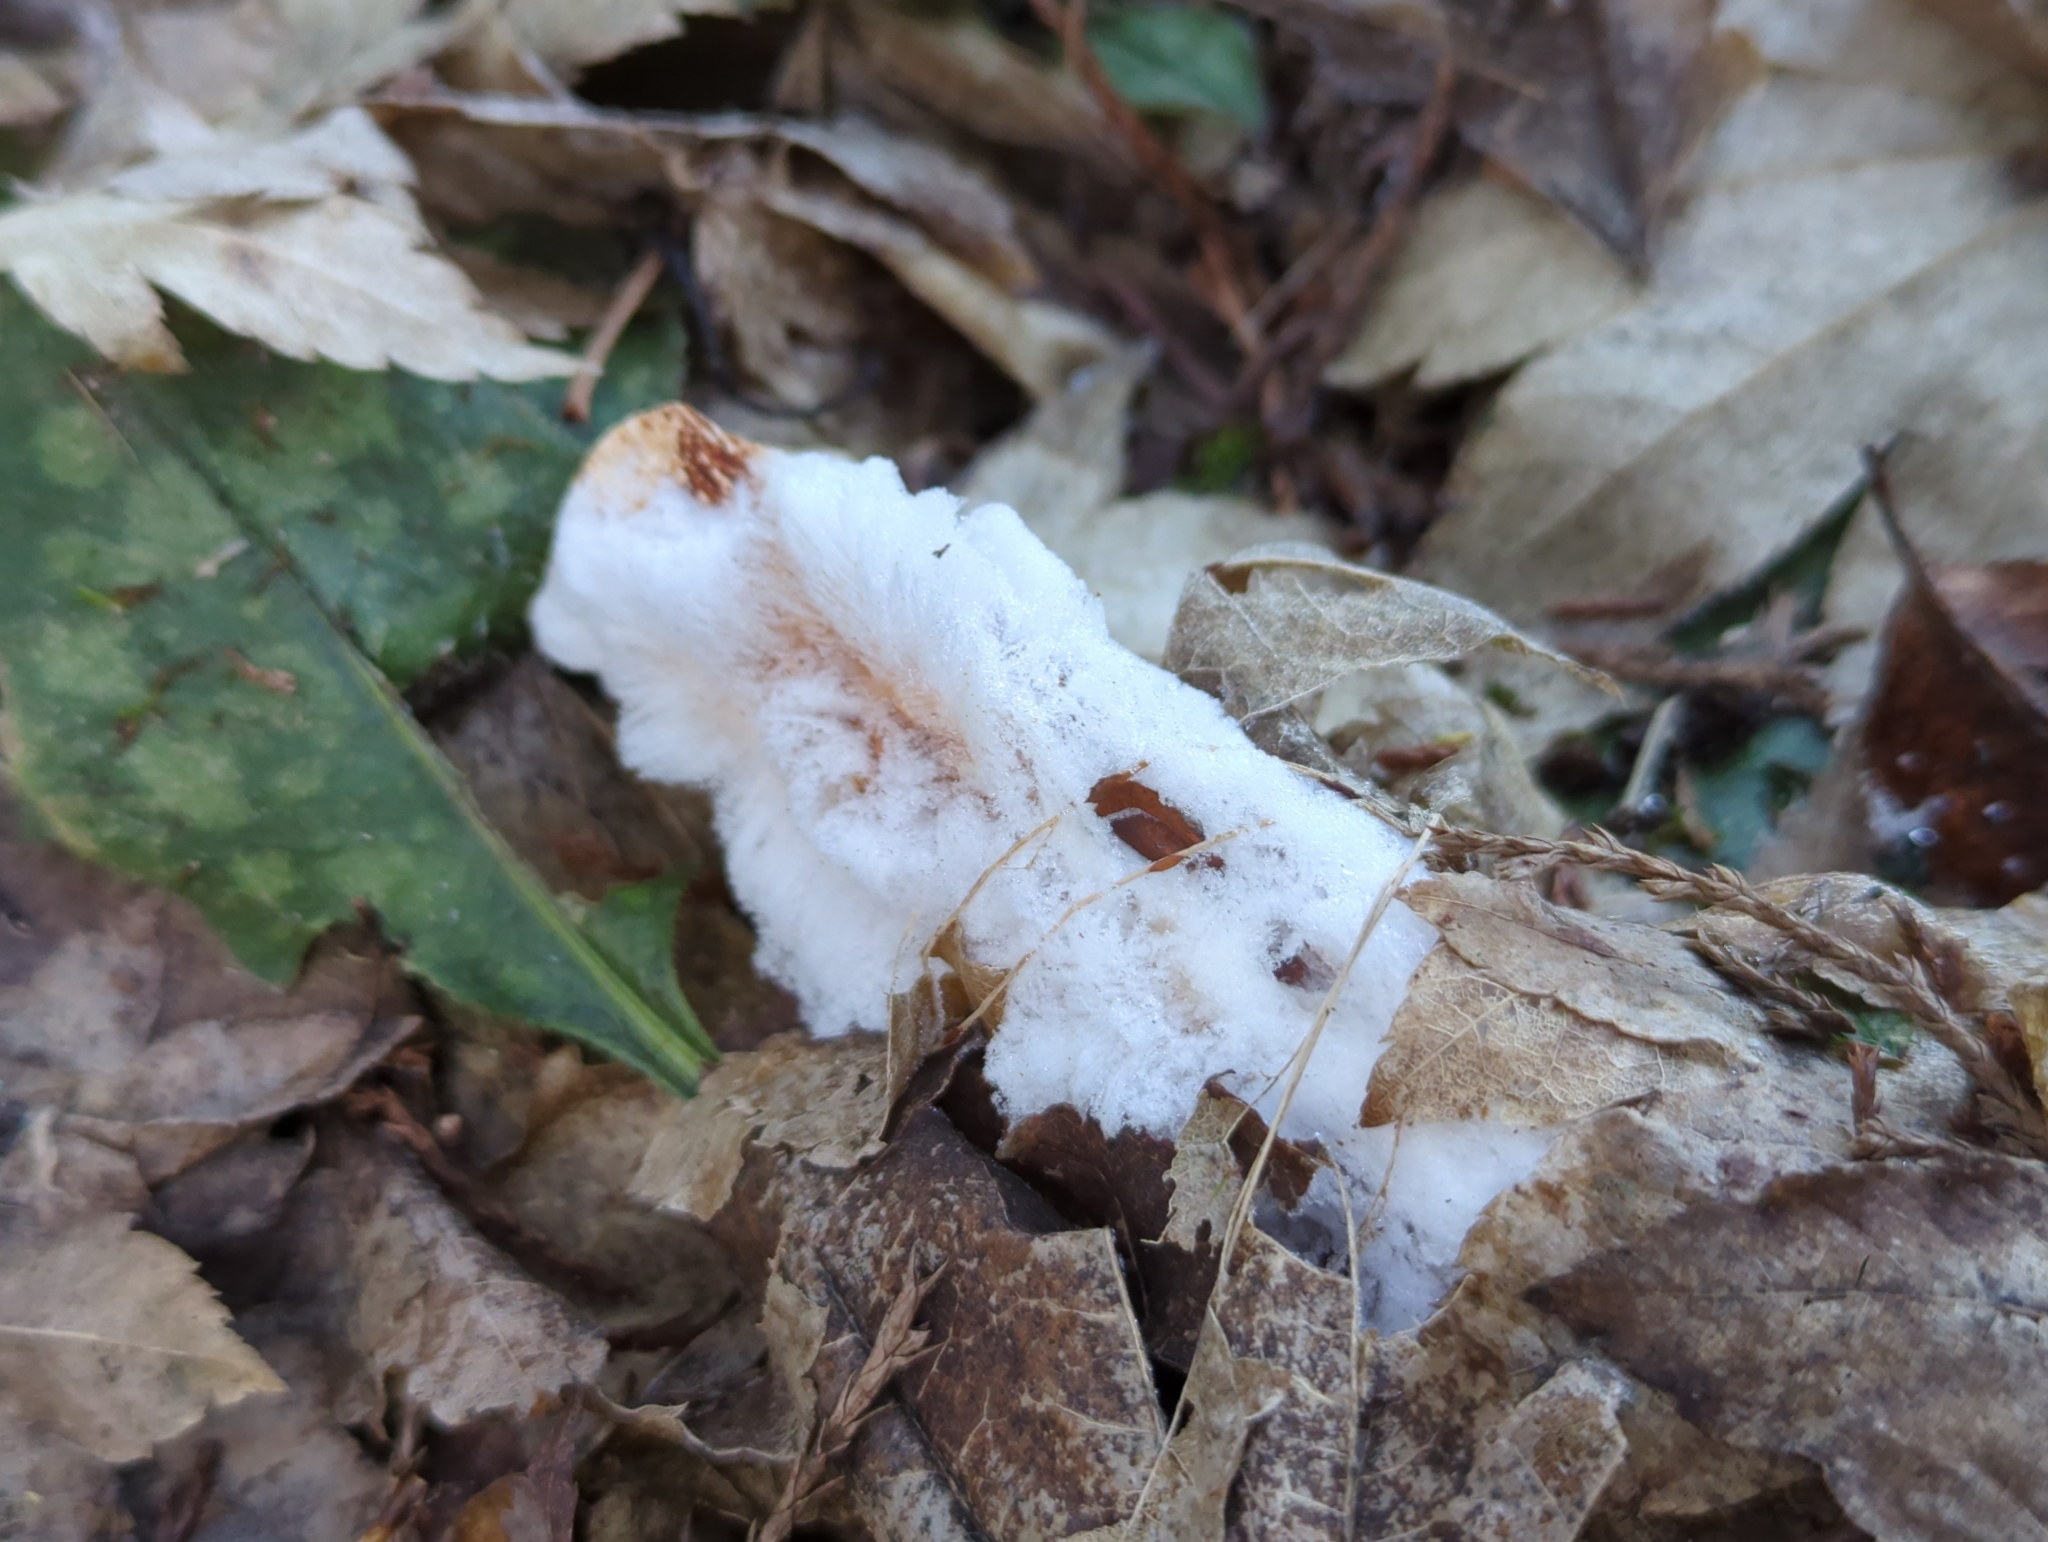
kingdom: Fungi
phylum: Basidiomycota
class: Agaricomycetes
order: Auriculariales
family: Auriculariaceae
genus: Exidiopsis
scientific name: Exidiopsis effusa
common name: Hair ice crust
